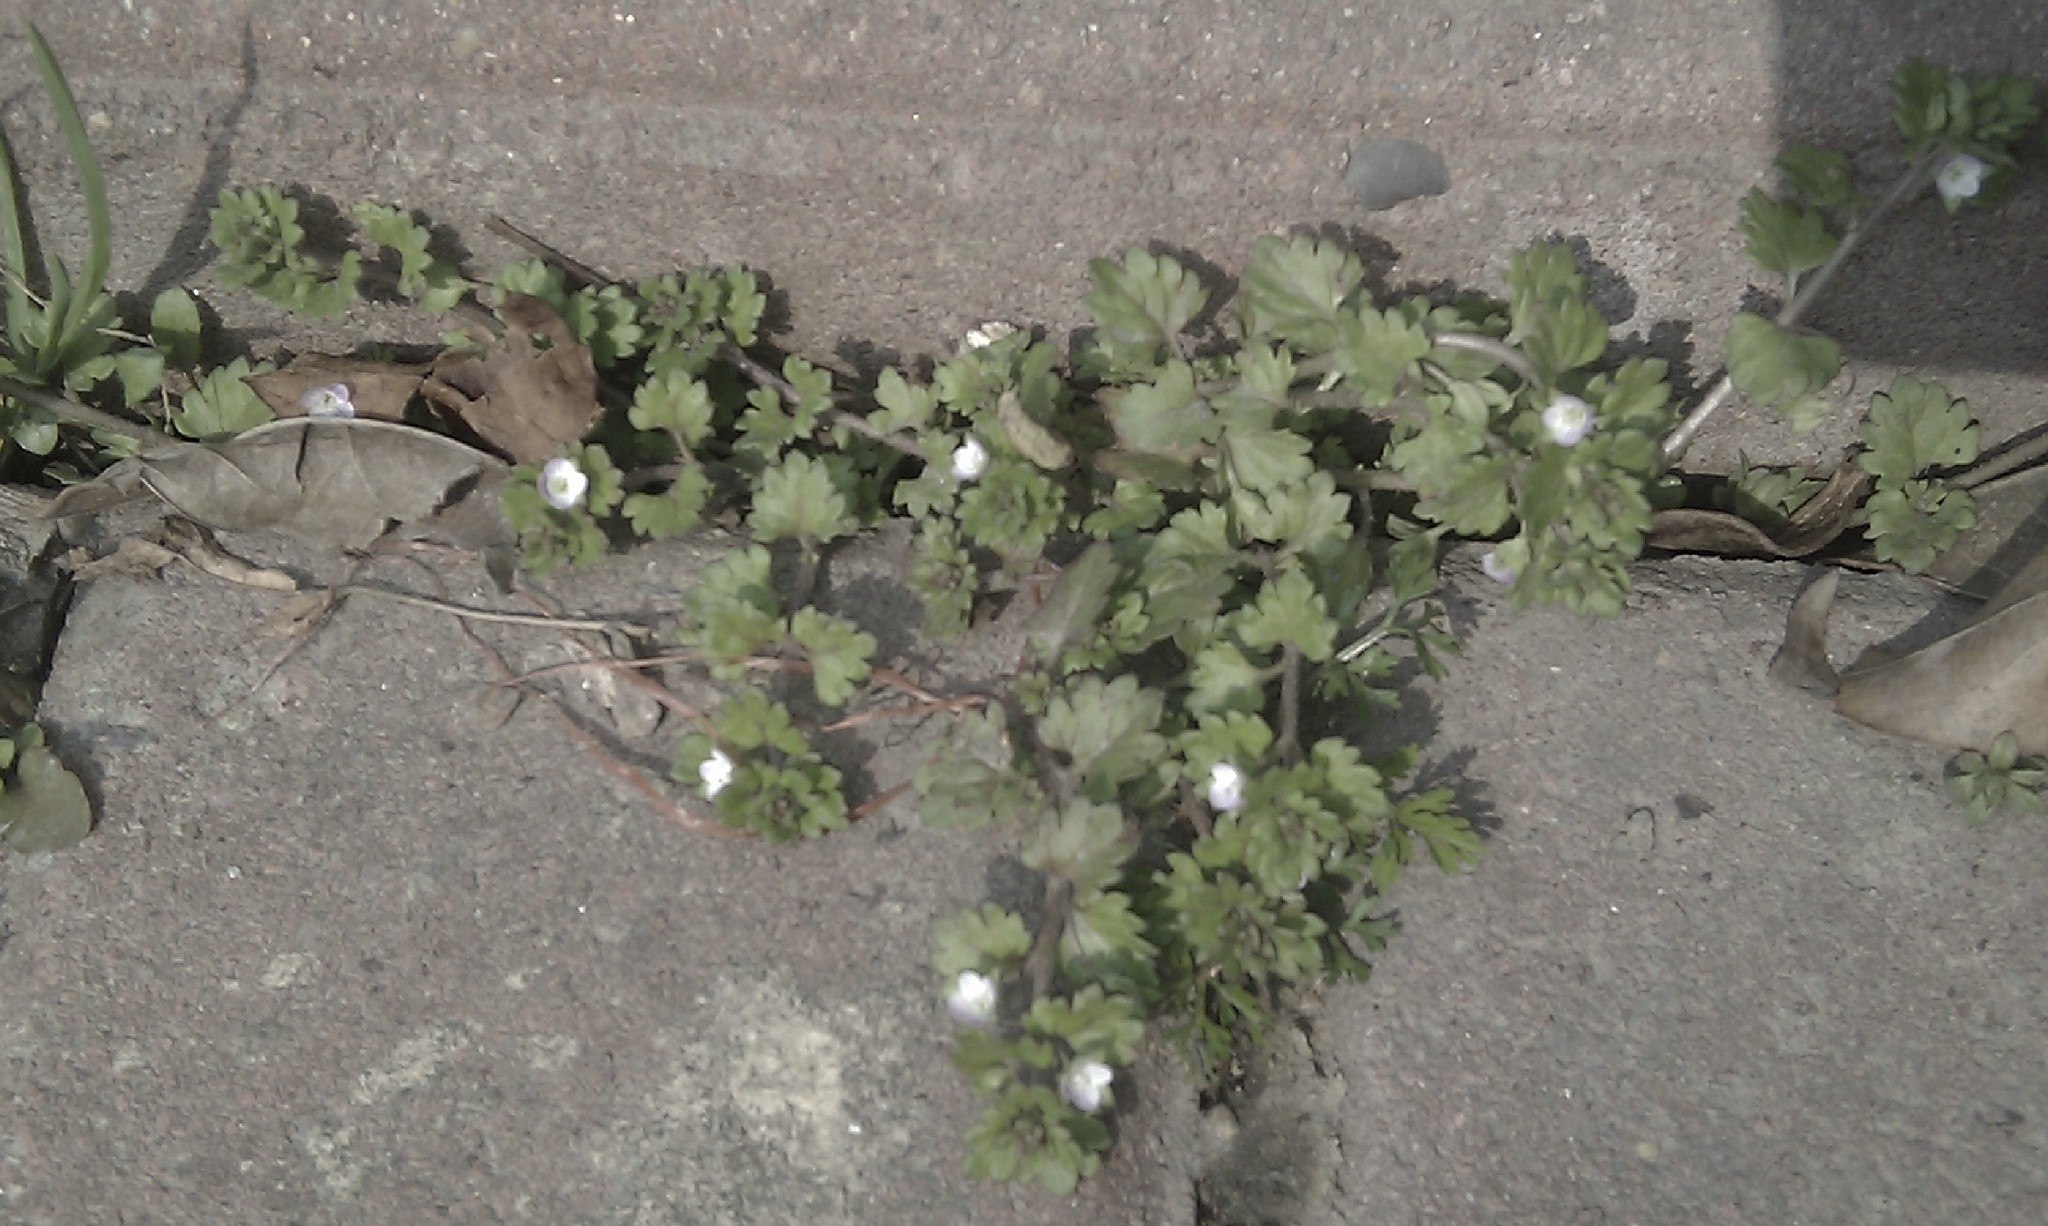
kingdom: Plantae
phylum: Tracheophyta
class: Magnoliopsida
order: Lamiales
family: Plantaginaceae
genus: Veronica
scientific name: Veronica polita
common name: Grey field-speedwell
